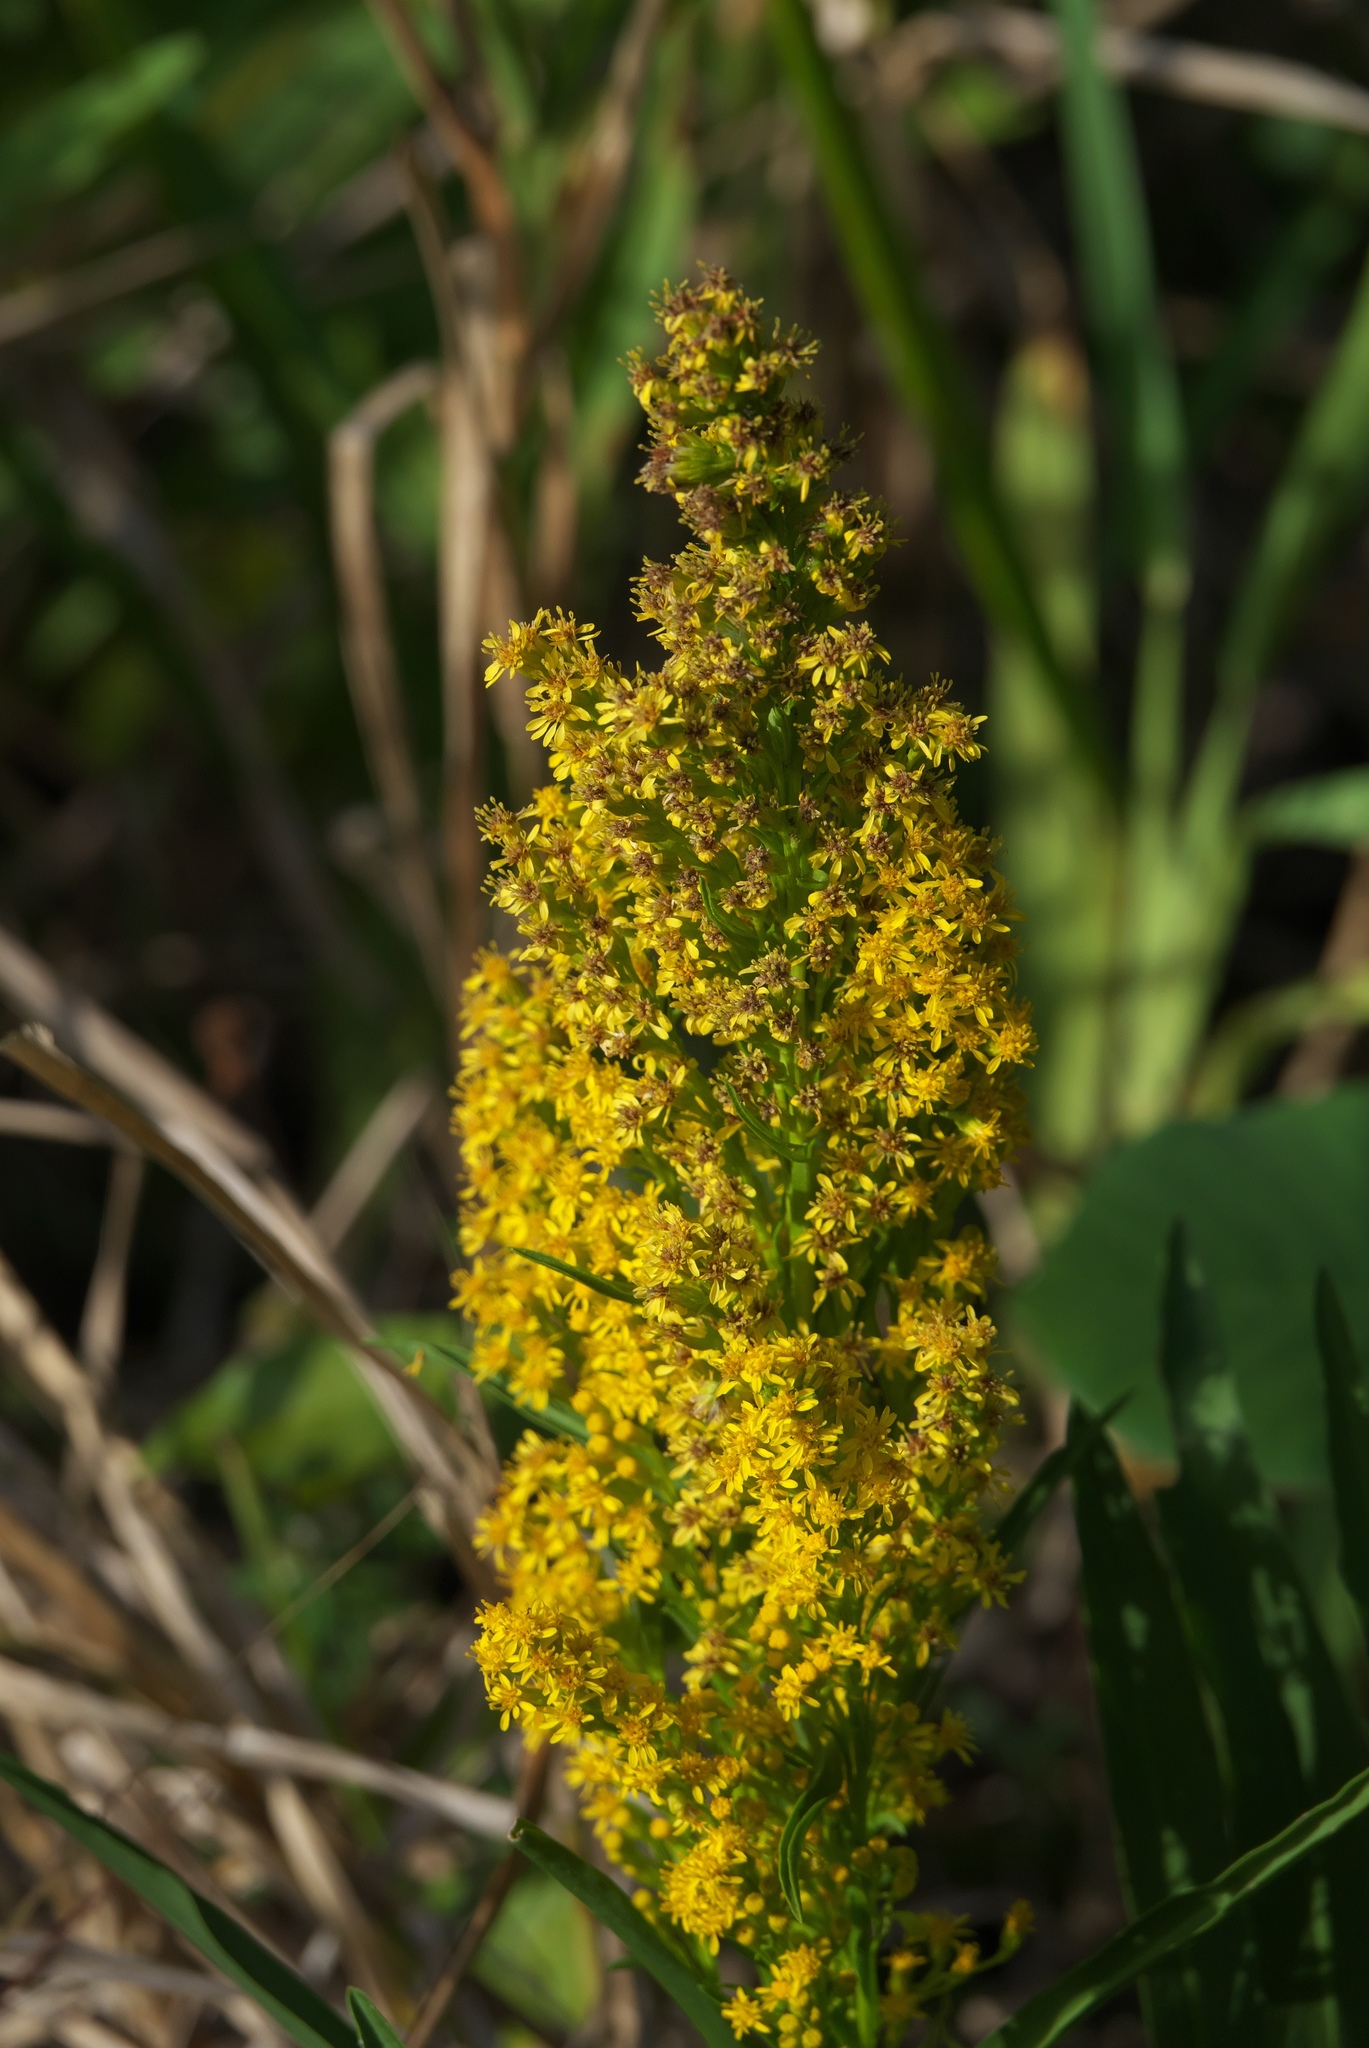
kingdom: Plantae
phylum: Tracheophyta
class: Magnoliopsida
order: Asterales
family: Asteraceae
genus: Solidago
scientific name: Solidago mexicana
